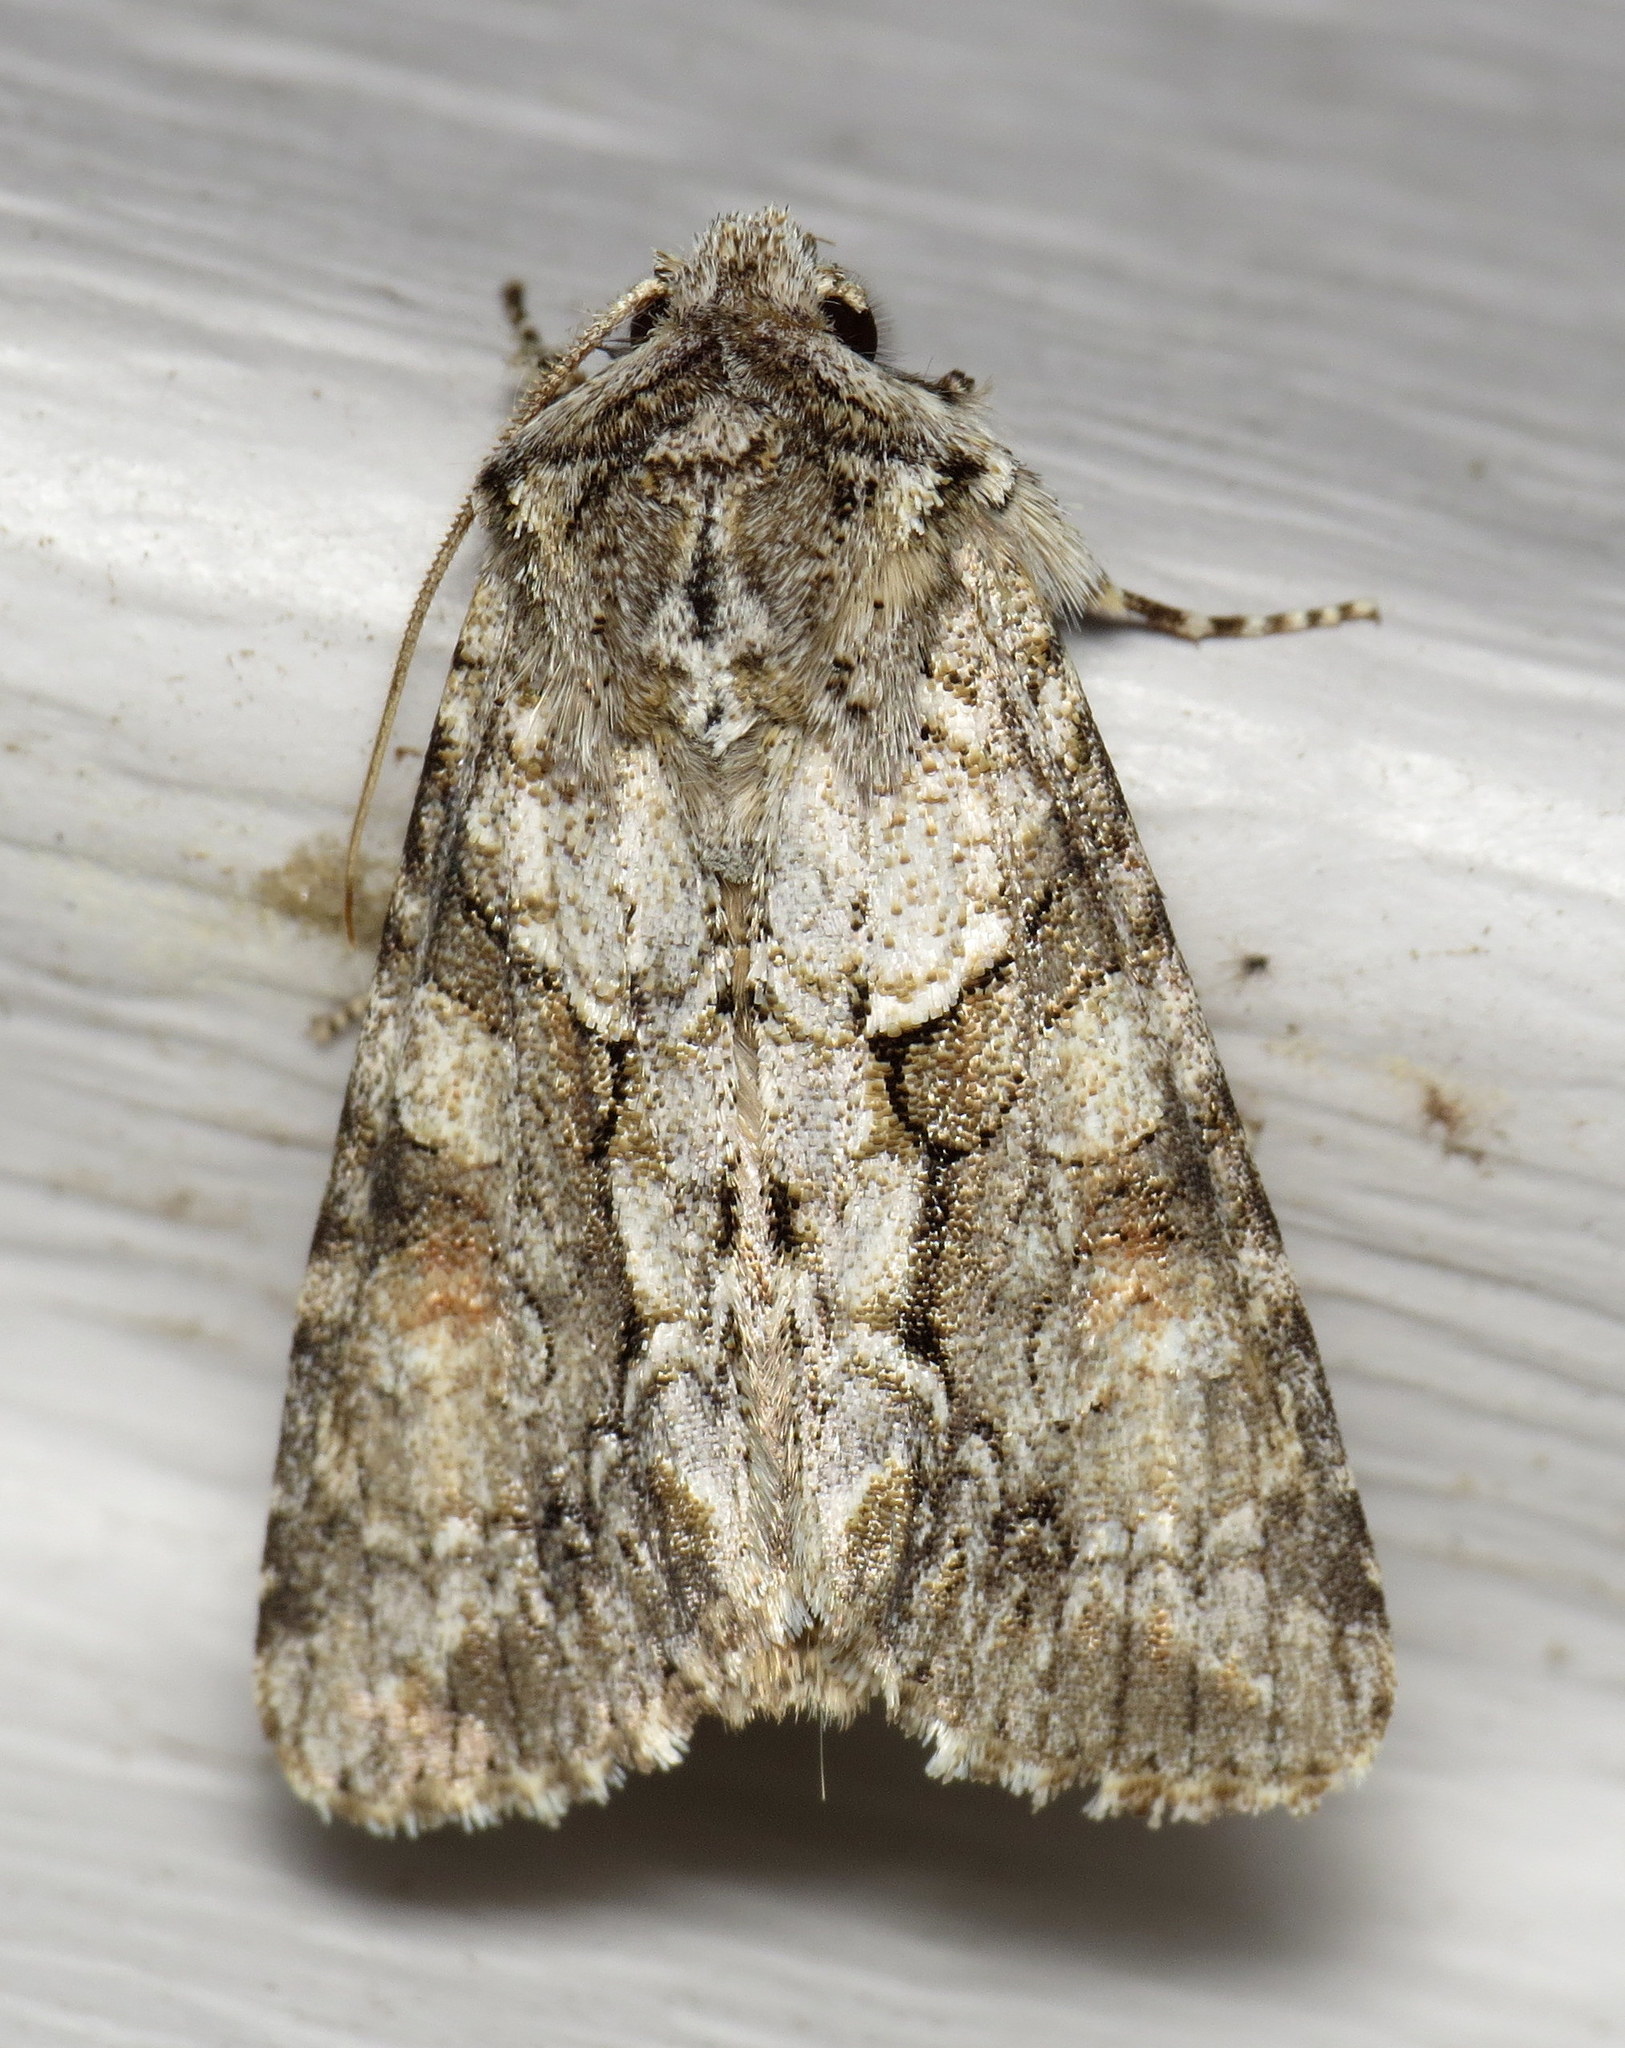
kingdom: Animalia
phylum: Arthropoda
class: Insecta
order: Lepidoptera
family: Noctuidae
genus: Achatia
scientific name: Achatia distincta
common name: Distinct quaker
